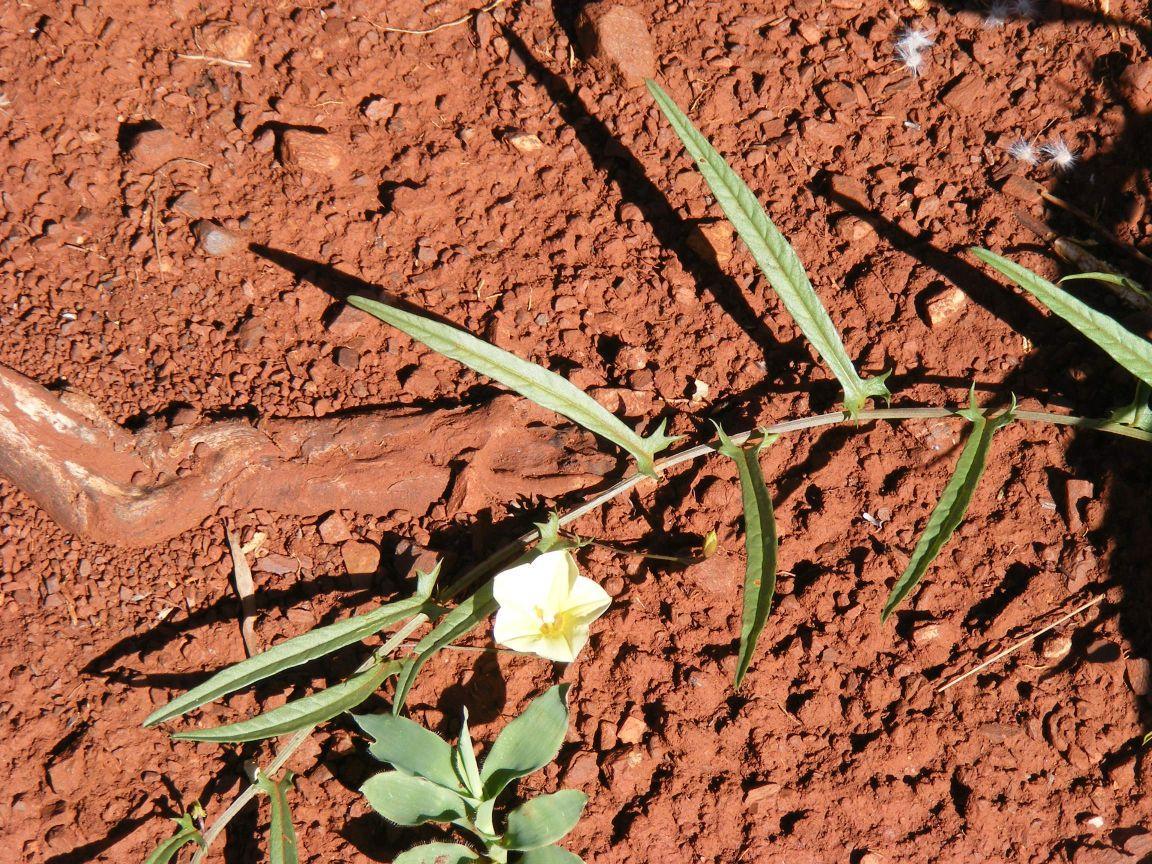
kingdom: Plantae
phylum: Tracheophyta
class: Magnoliopsida
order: Solanales
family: Convolvulaceae
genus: Xenostegia
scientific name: Xenostegia tridentata
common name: African morningvine
